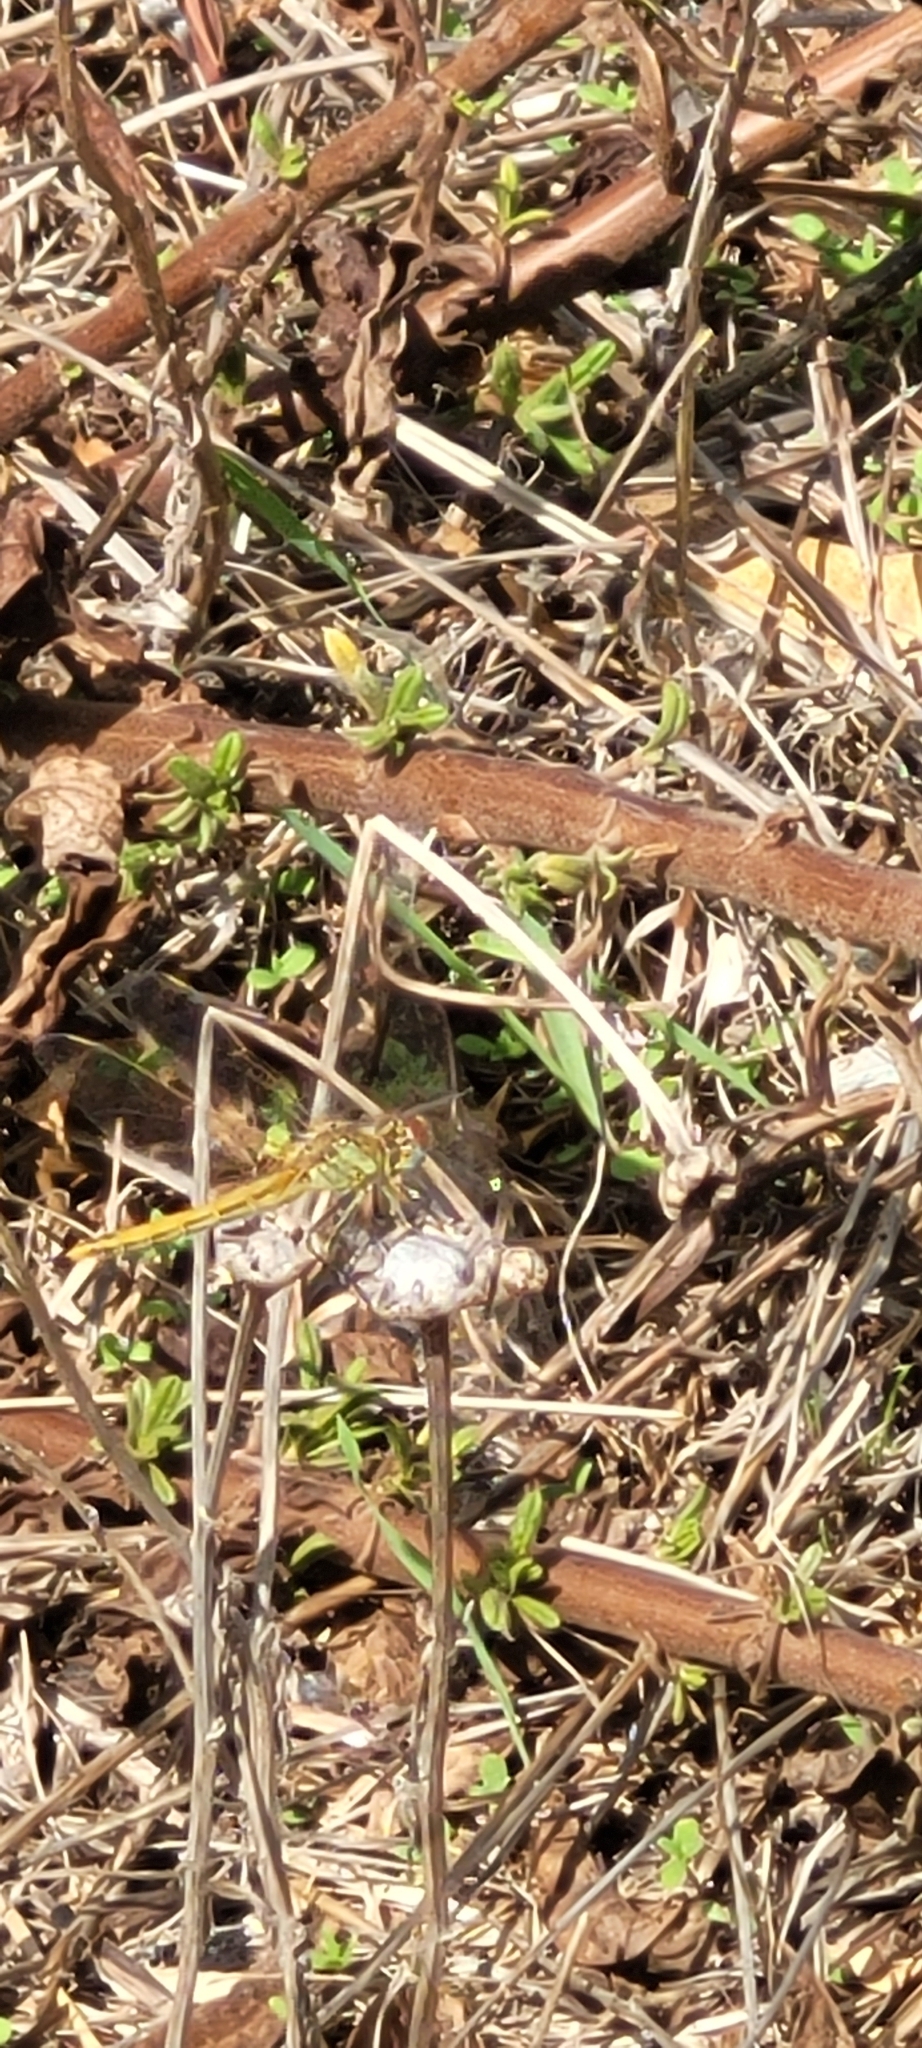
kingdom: Animalia
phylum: Arthropoda
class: Insecta
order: Odonata
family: Libellulidae
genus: Sympetrum
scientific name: Sympetrum fonscolombii
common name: Red-veined darter
